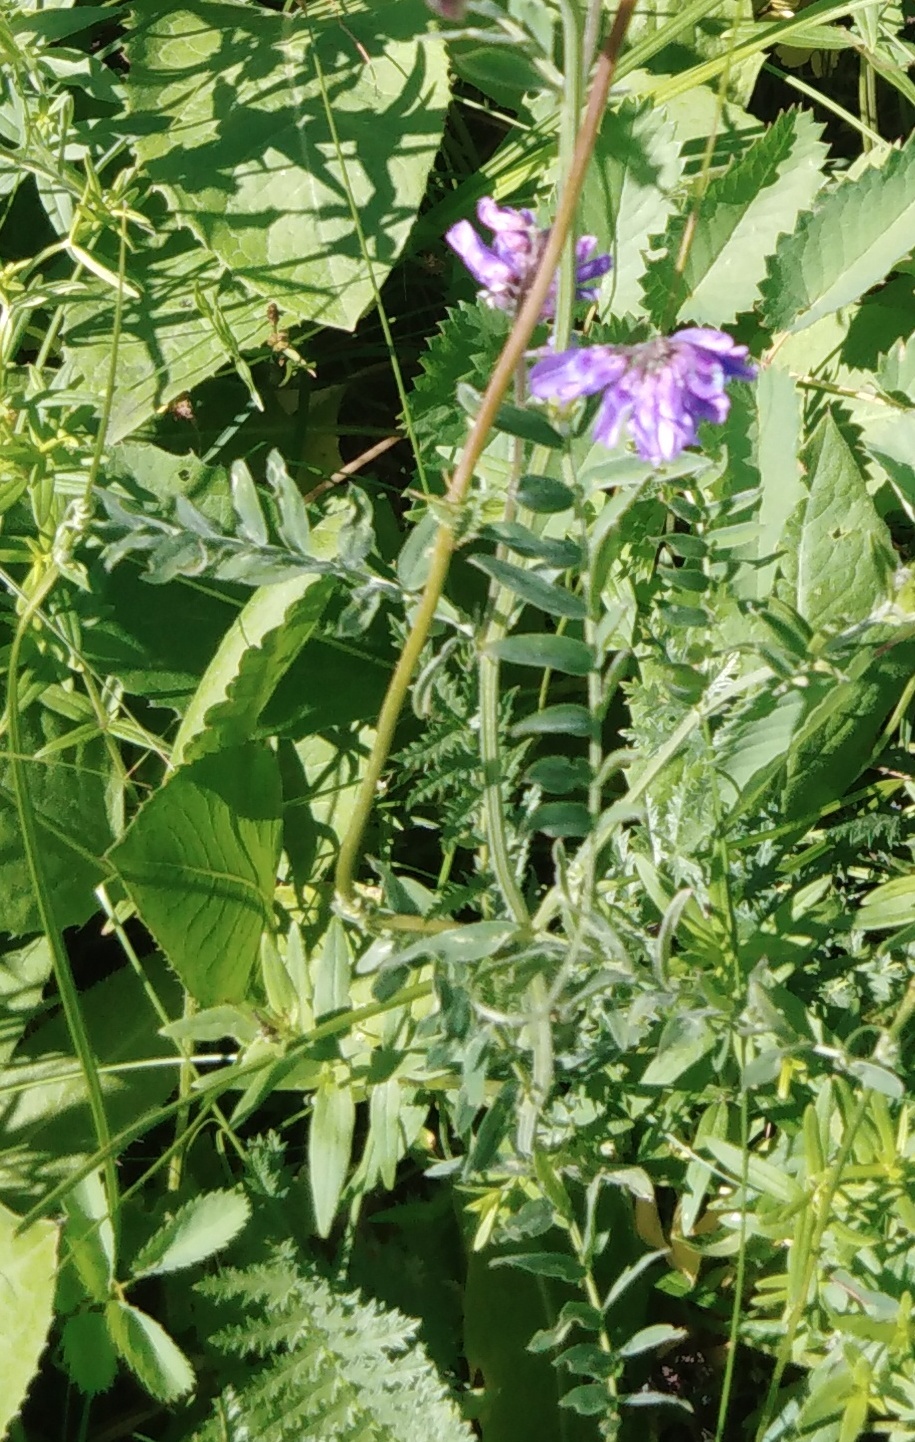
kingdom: Plantae
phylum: Tracheophyta
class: Magnoliopsida
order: Fabales
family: Fabaceae
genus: Vicia
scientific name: Vicia cracca
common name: Bird vetch
